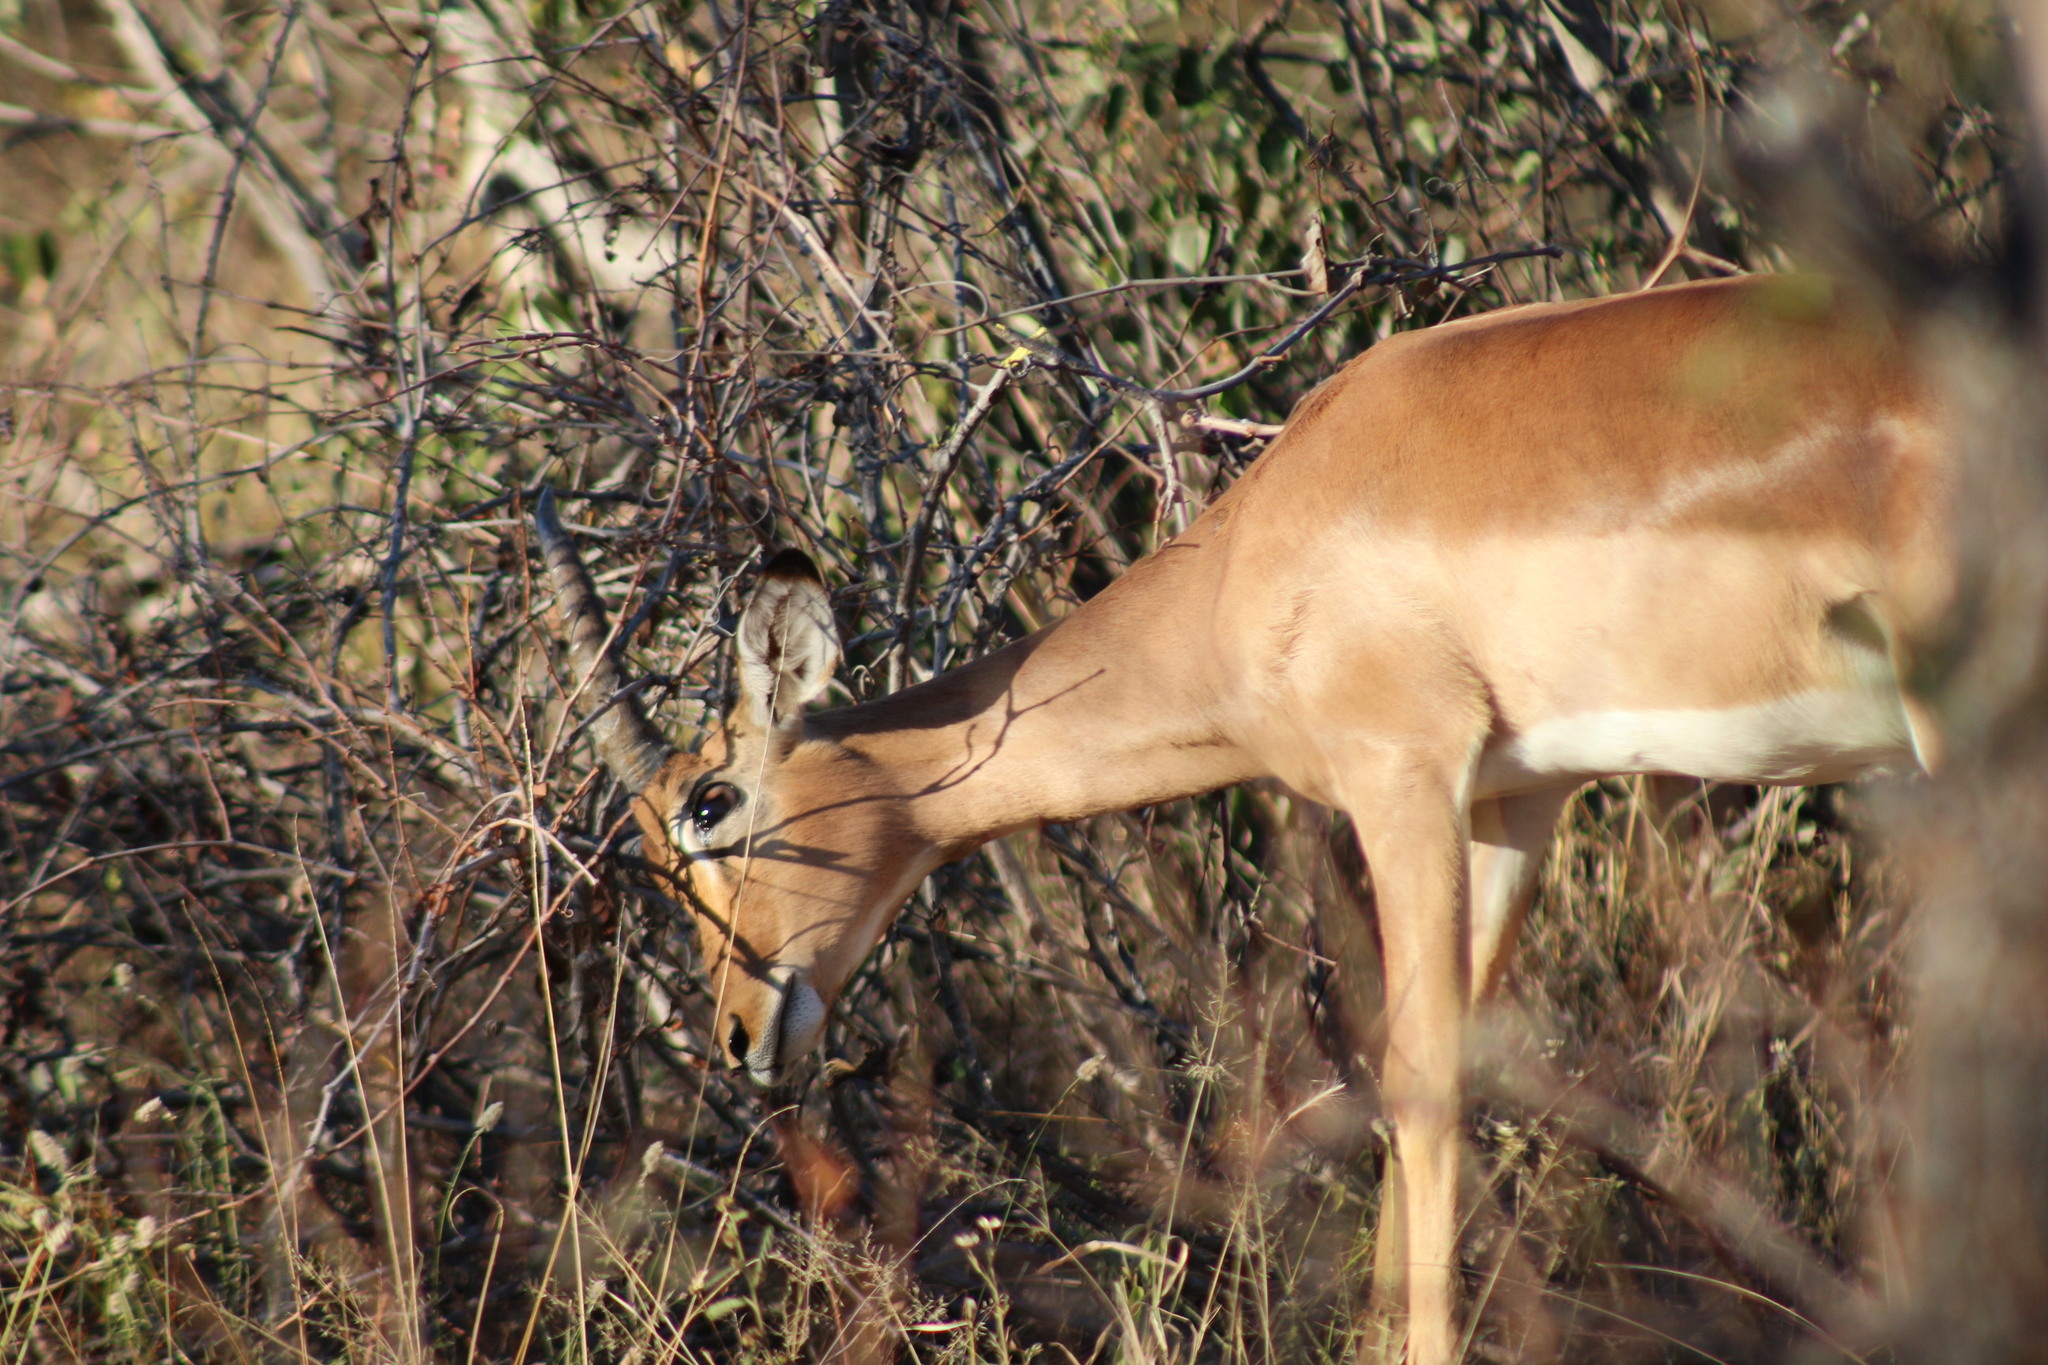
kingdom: Animalia
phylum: Chordata
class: Mammalia
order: Artiodactyla
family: Bovidae
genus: Aepyceros
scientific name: Aepyceros melampus
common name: Impala
